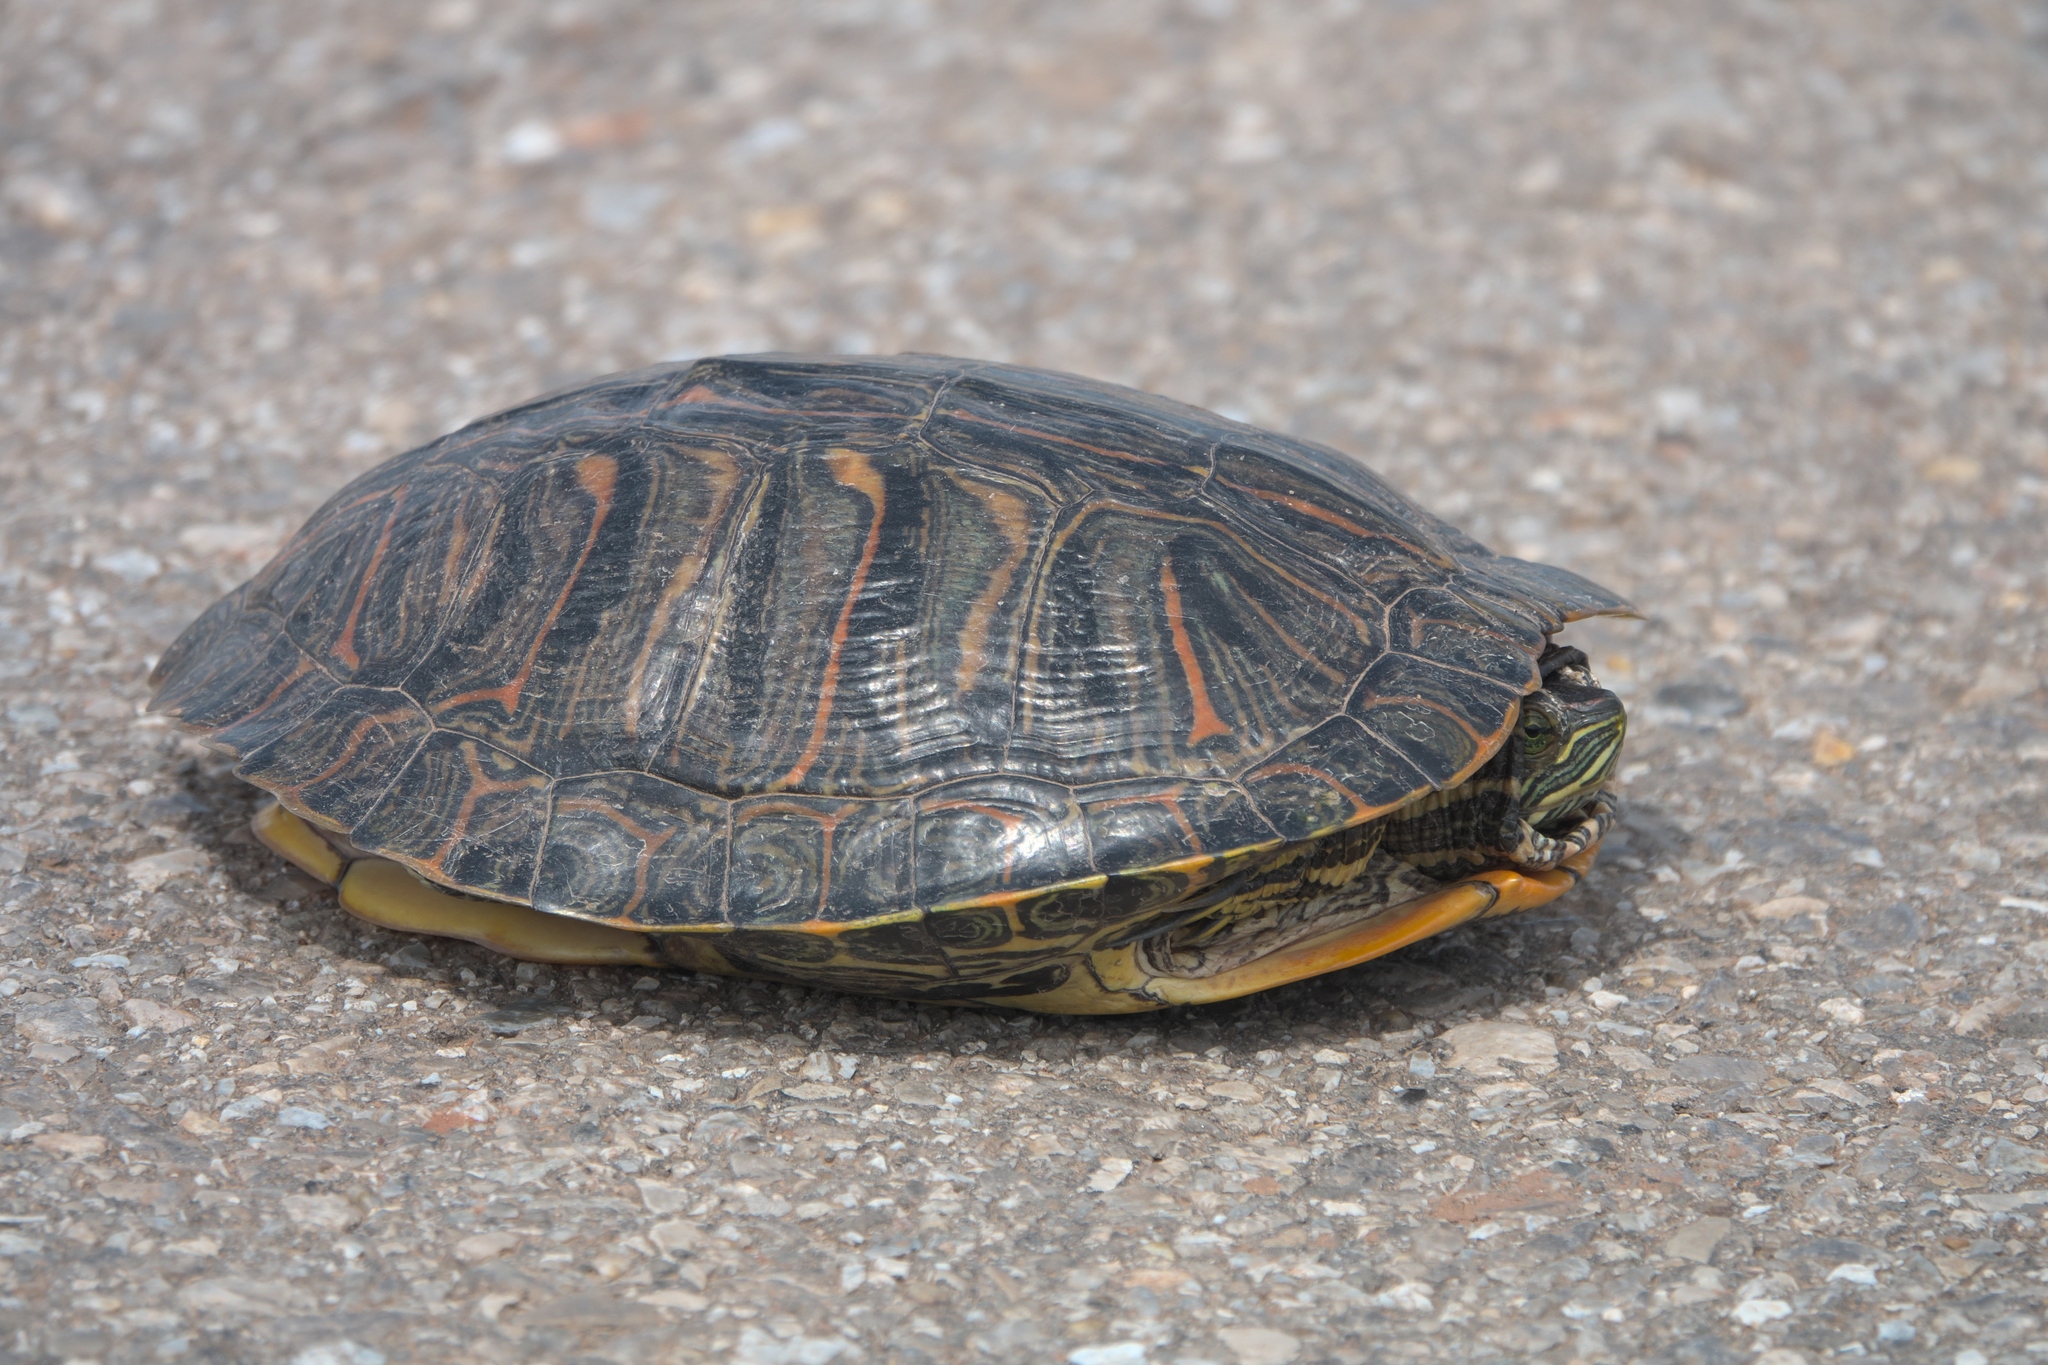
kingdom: Animalia
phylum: Chordata
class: Testudines
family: Emydidae
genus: Trachemys
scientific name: Trachemys scripta
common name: Slider
